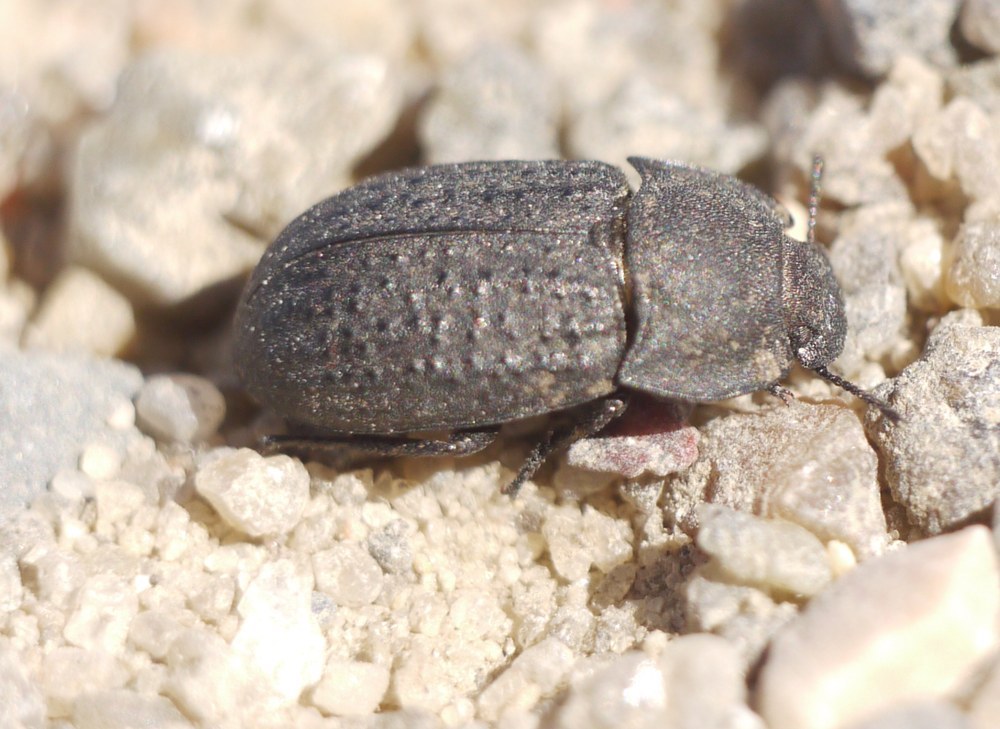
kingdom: Animalia
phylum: Arthropoda
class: Insecta
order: Coleoptera
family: Tenebrionidae
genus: Opatrum
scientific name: Opatrum sabulosum
